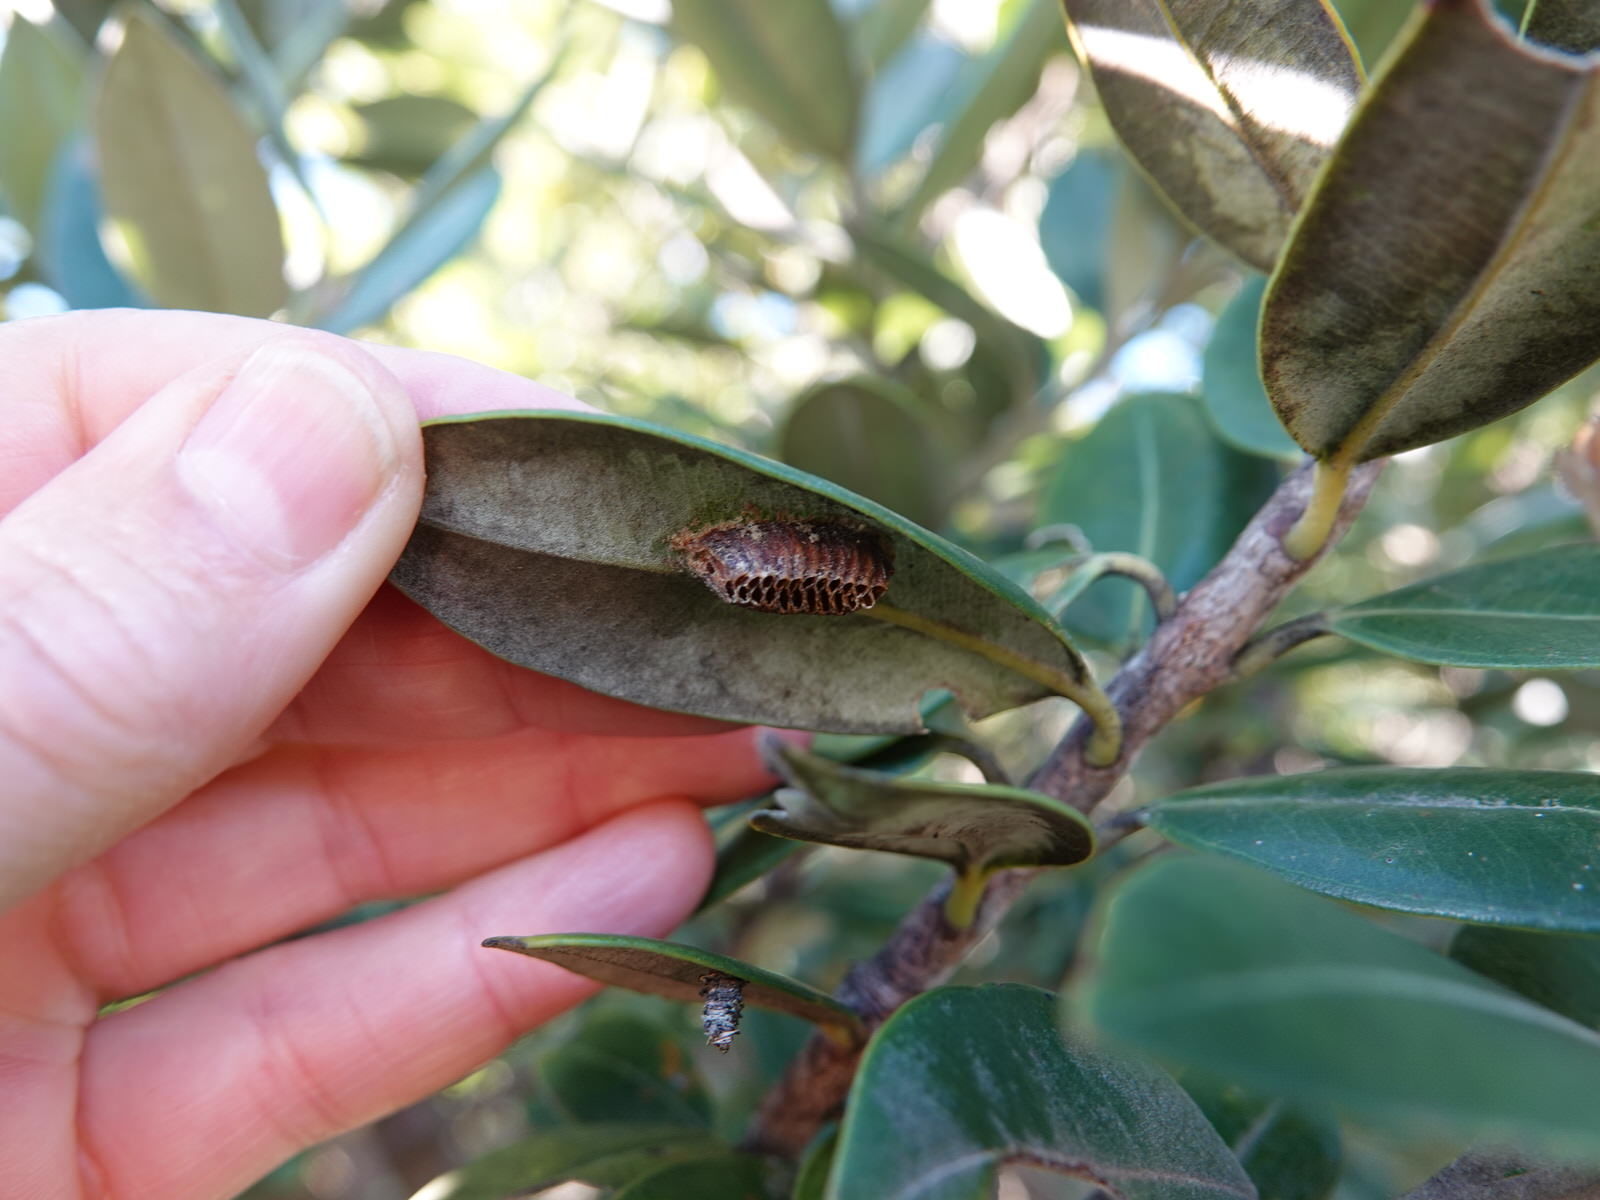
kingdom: Animalia
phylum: Arthropoda
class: Insecta
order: Mantodea
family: Mantidae
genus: Orthodera
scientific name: Orthodera novaezealandiae
